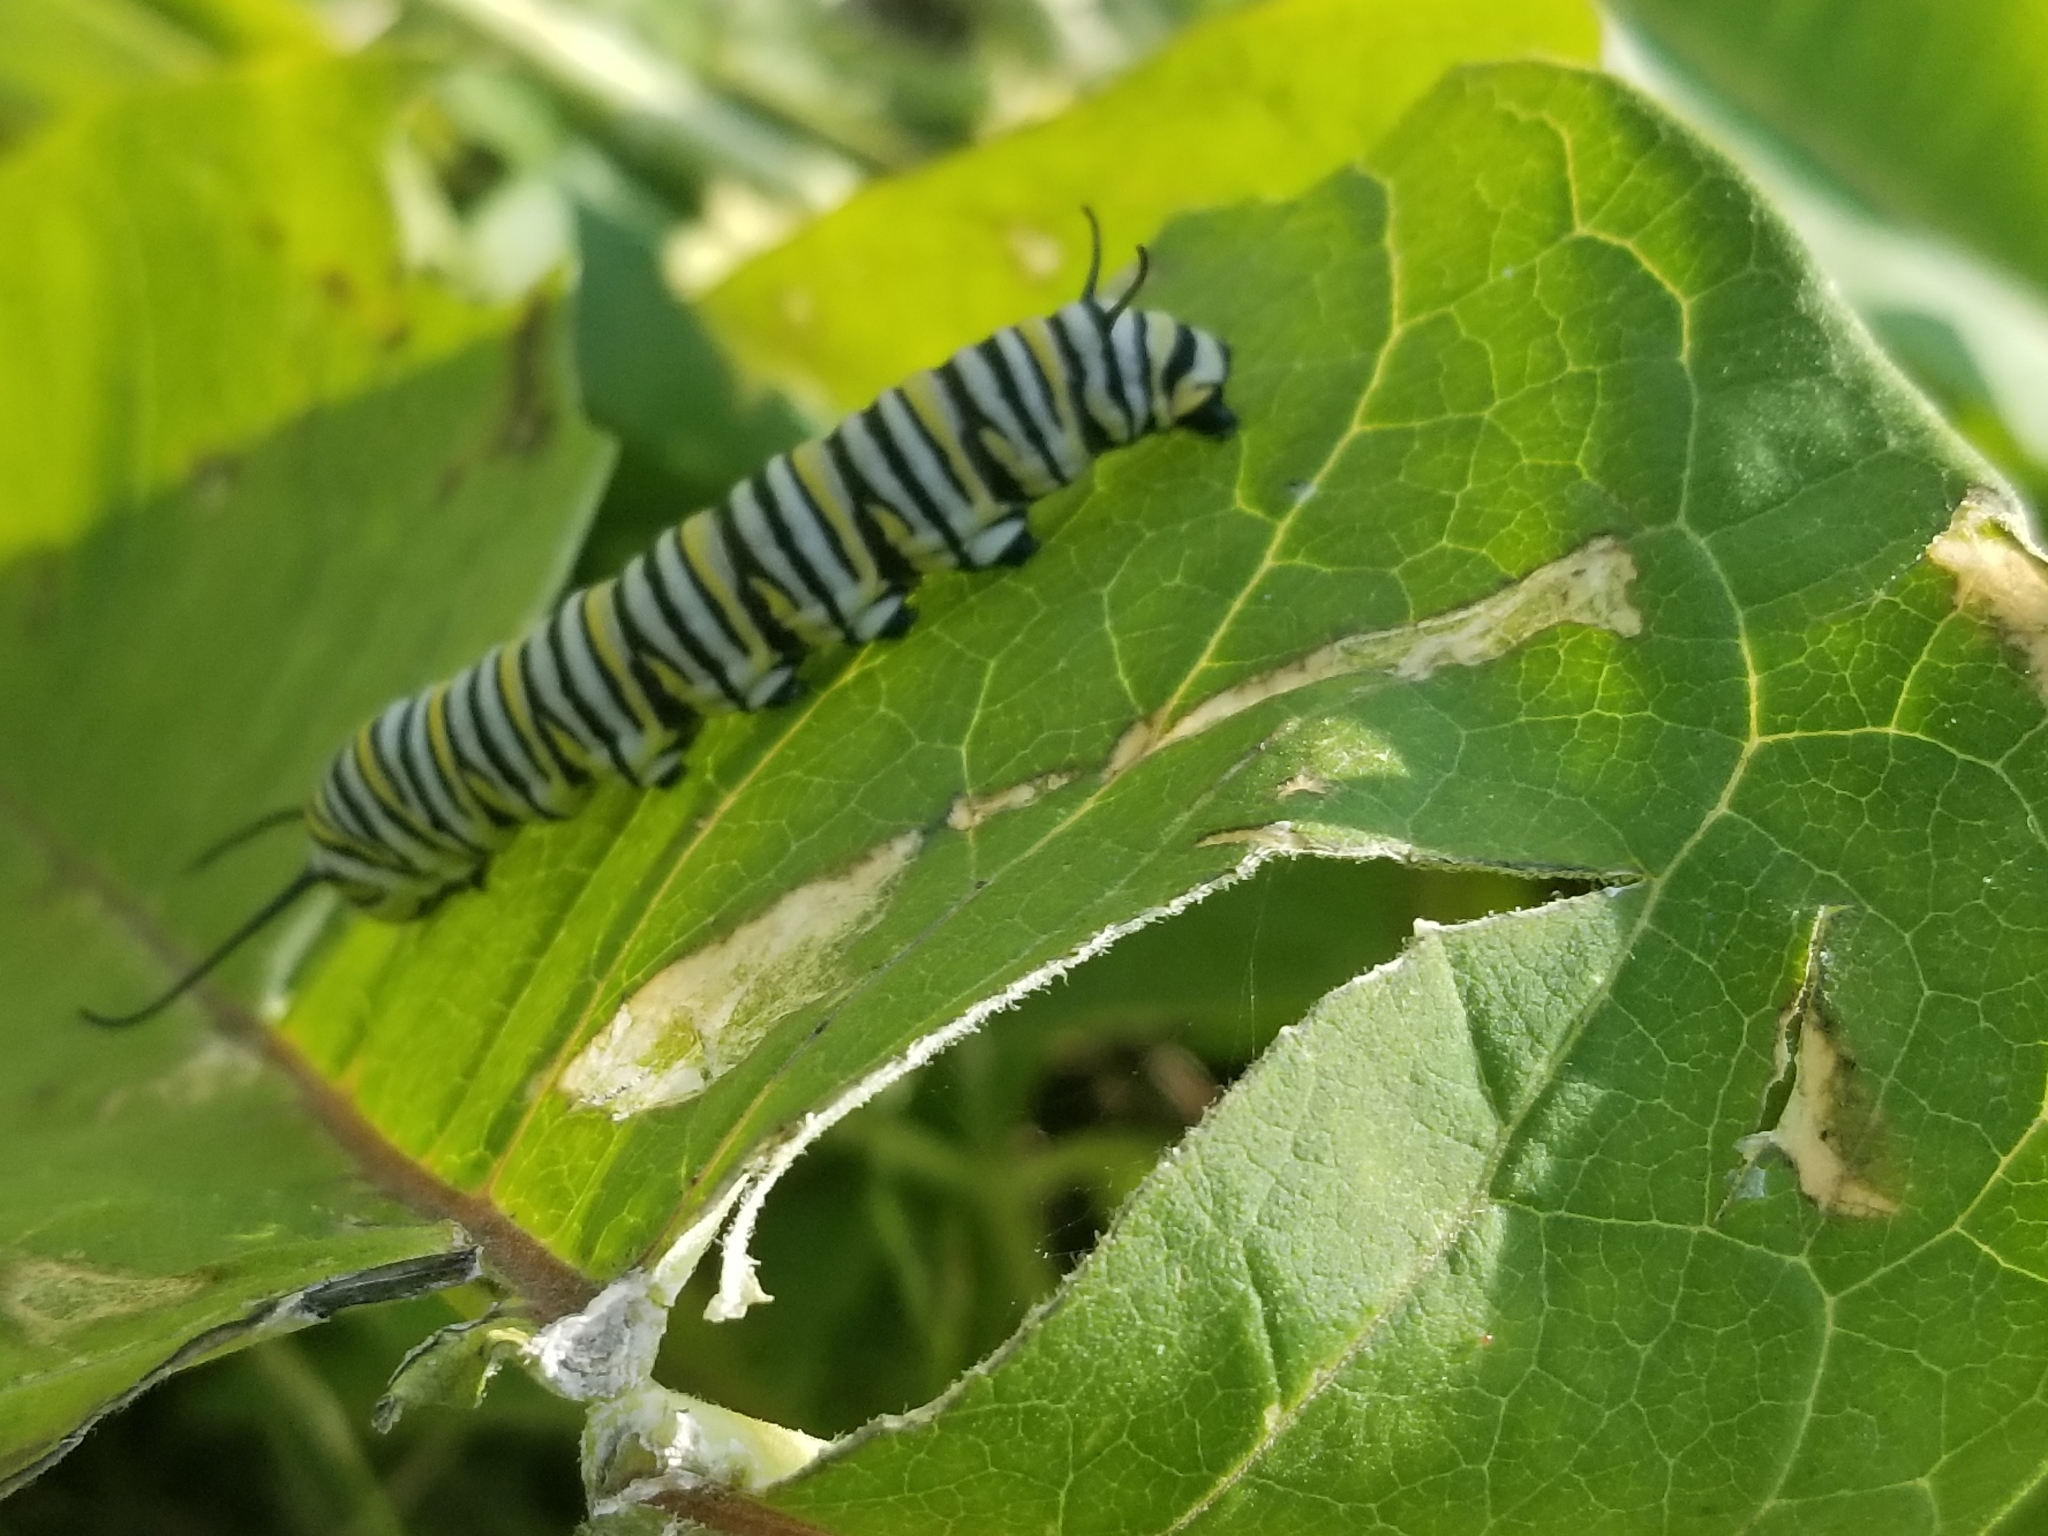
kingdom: Animalia
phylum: Arthropoda
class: Insecta
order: Lepidoptera
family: Nymphalidae
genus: Danaus
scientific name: Danaus plexippus
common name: Monarch
